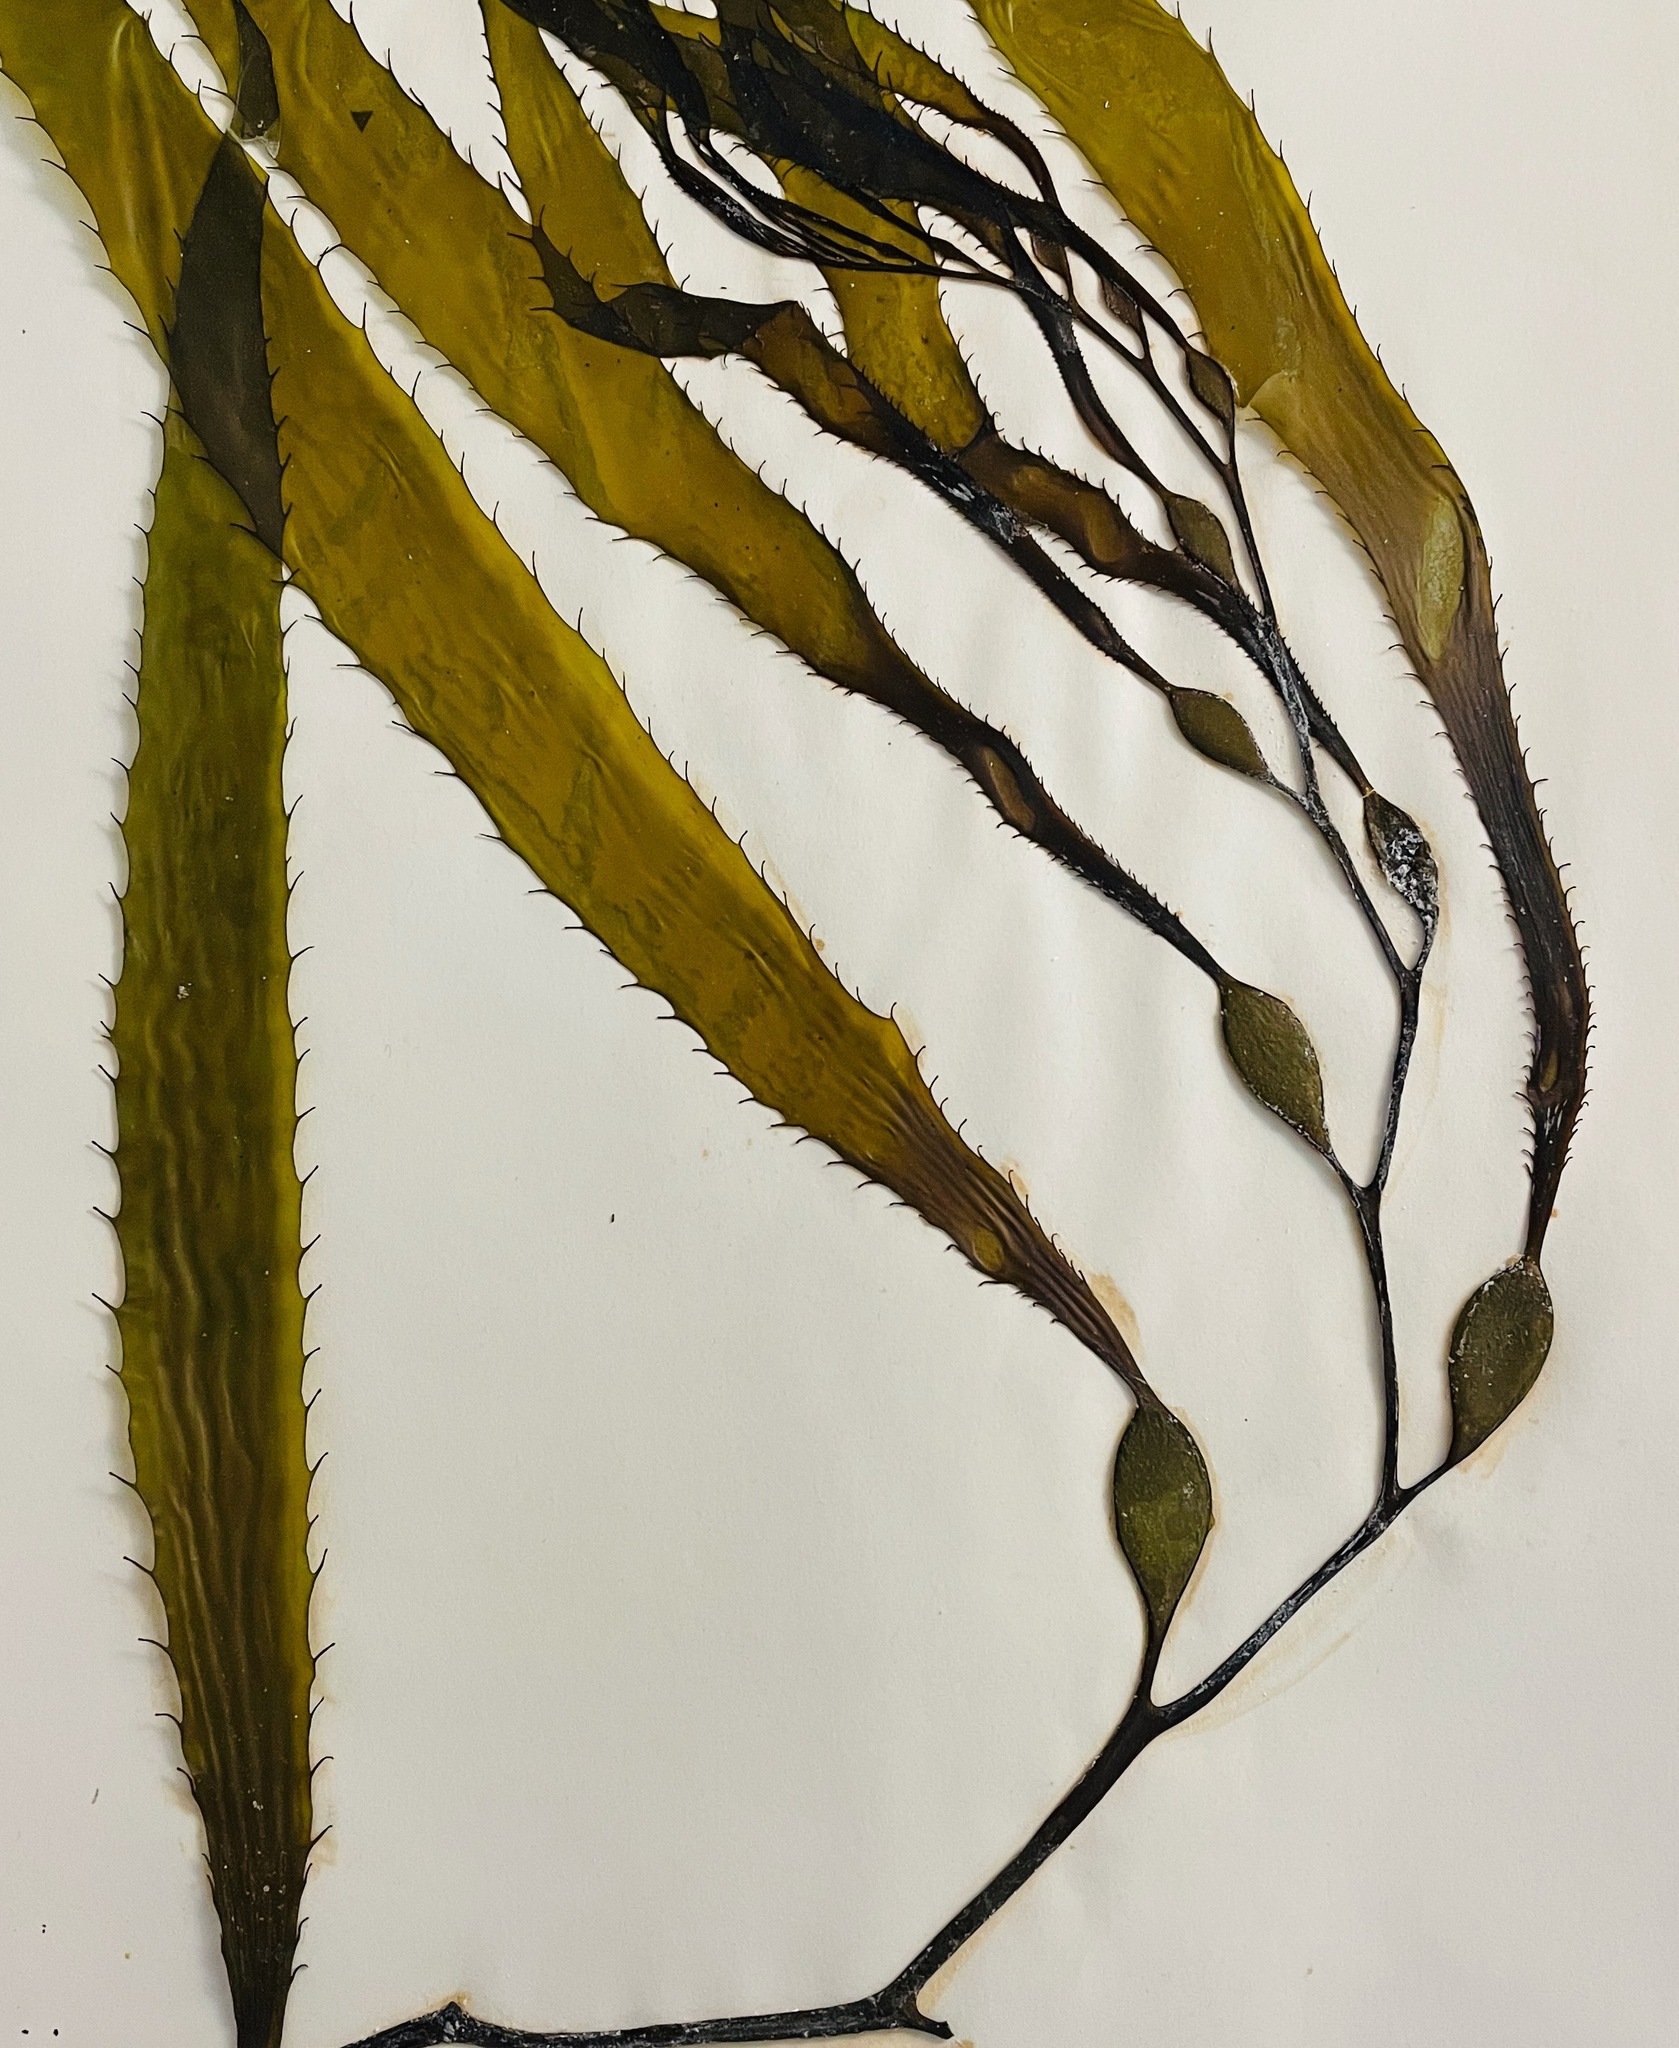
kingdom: Chromista
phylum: Ochrophyta
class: Phaeophyceae
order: Laminariales
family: Laminariaceae
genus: Macrocystis
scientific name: Macrocystis pyrifera
